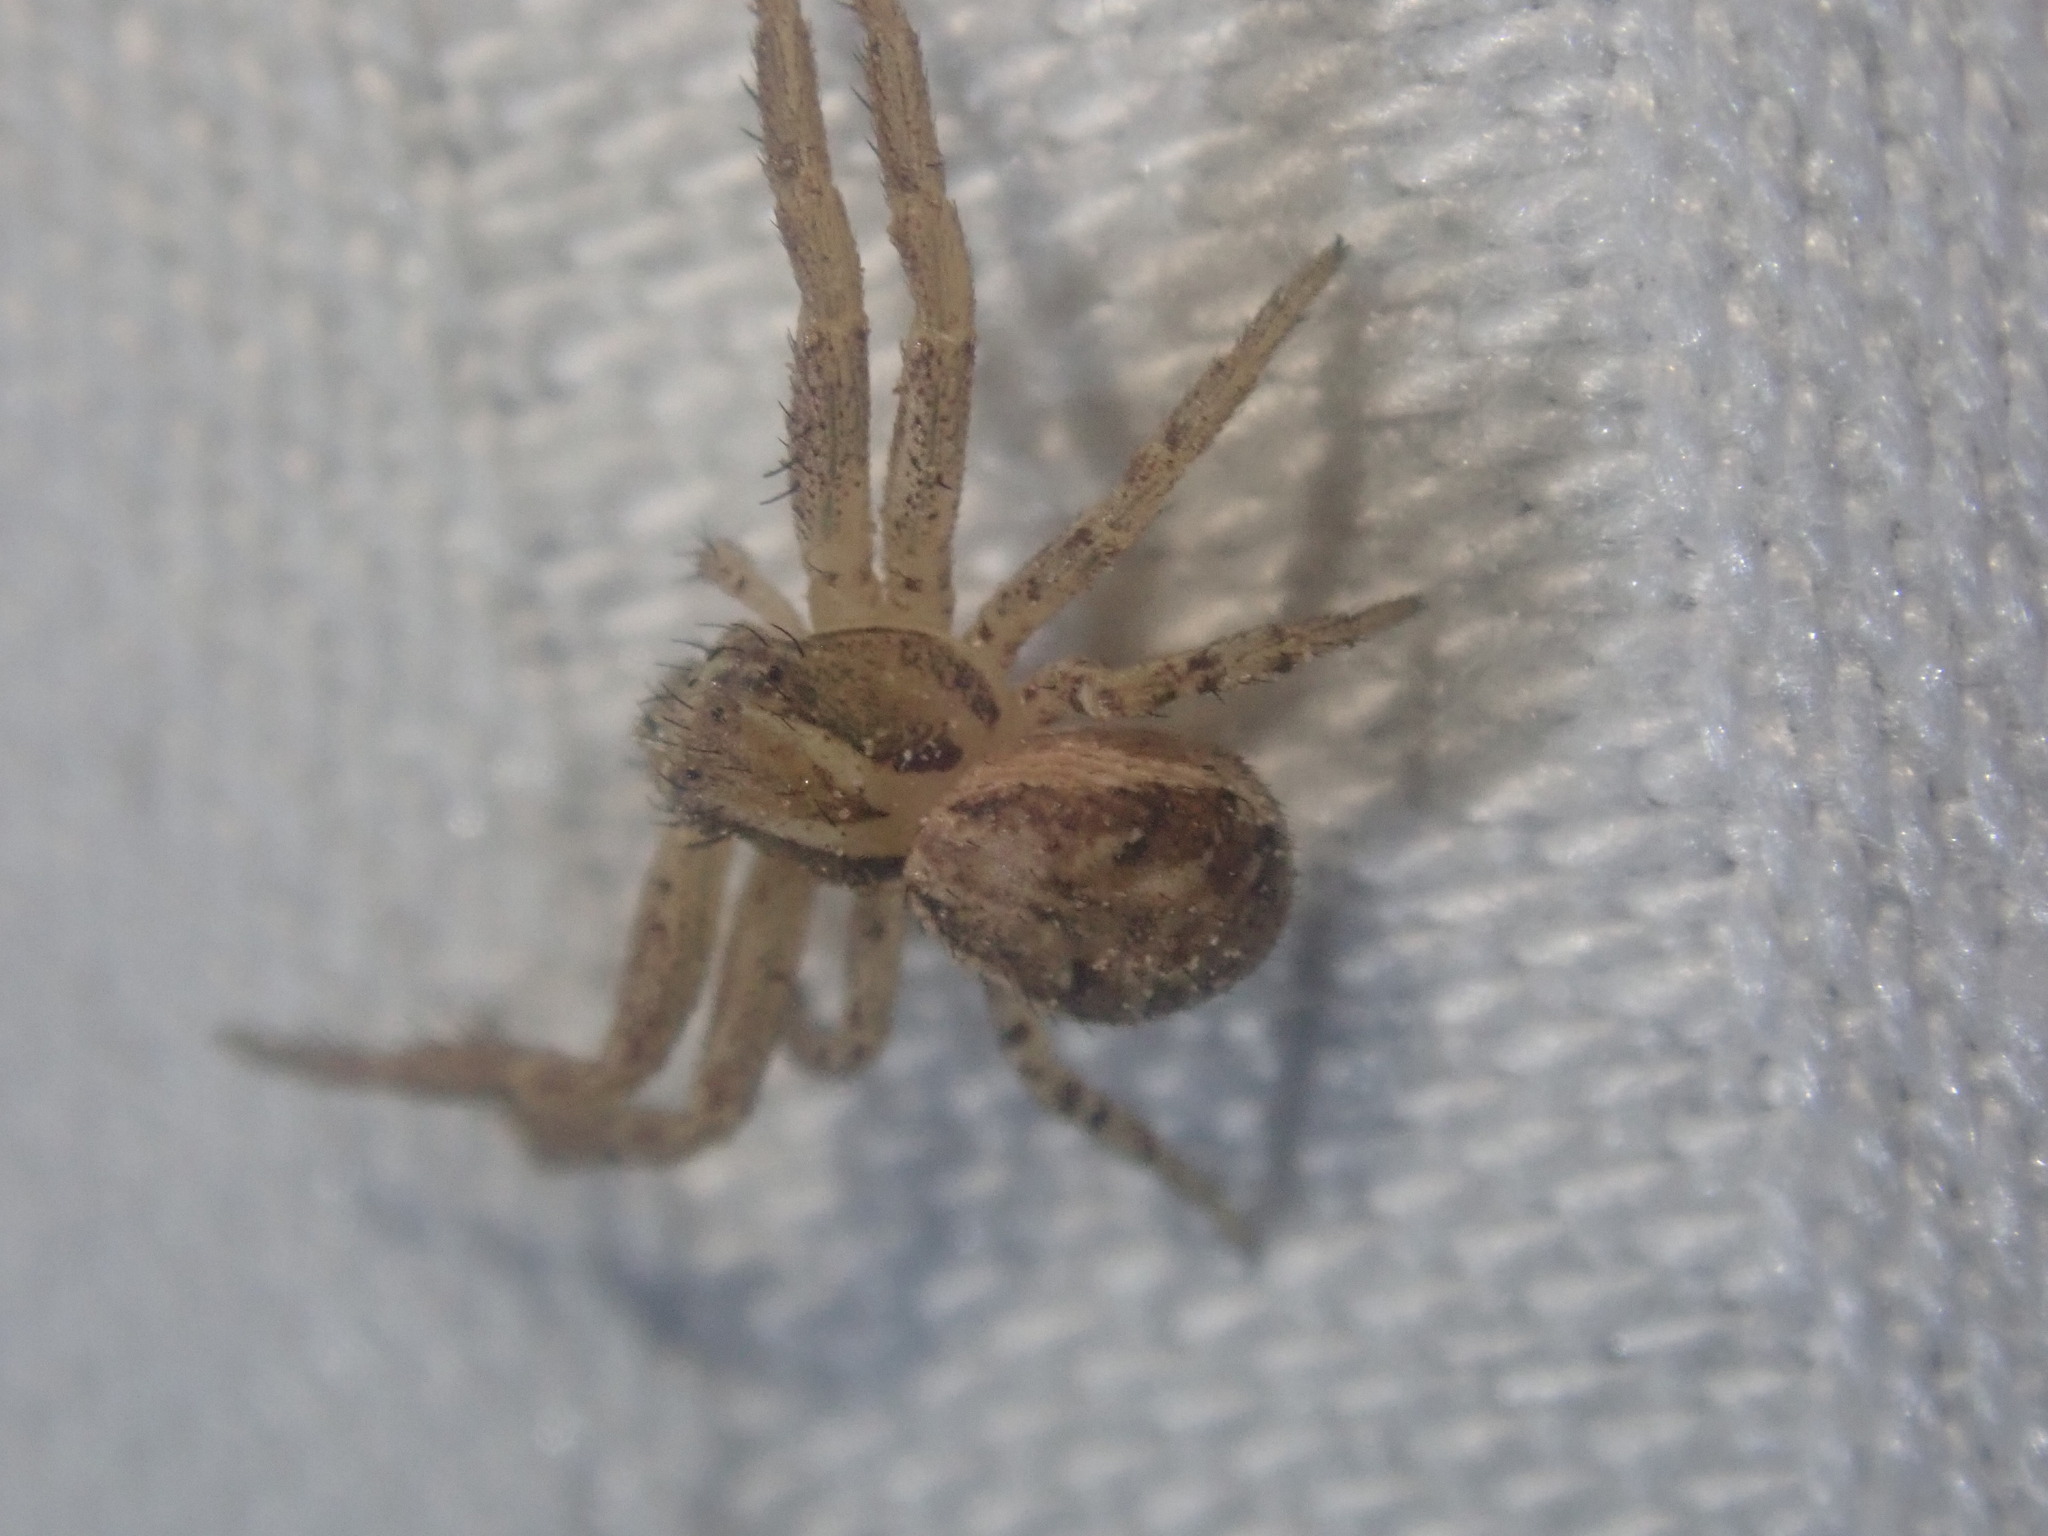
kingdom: Animalia
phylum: Arthropoda
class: Arachnida
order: Araneae
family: Thomisidae
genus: Xysticus
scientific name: Xysticus
